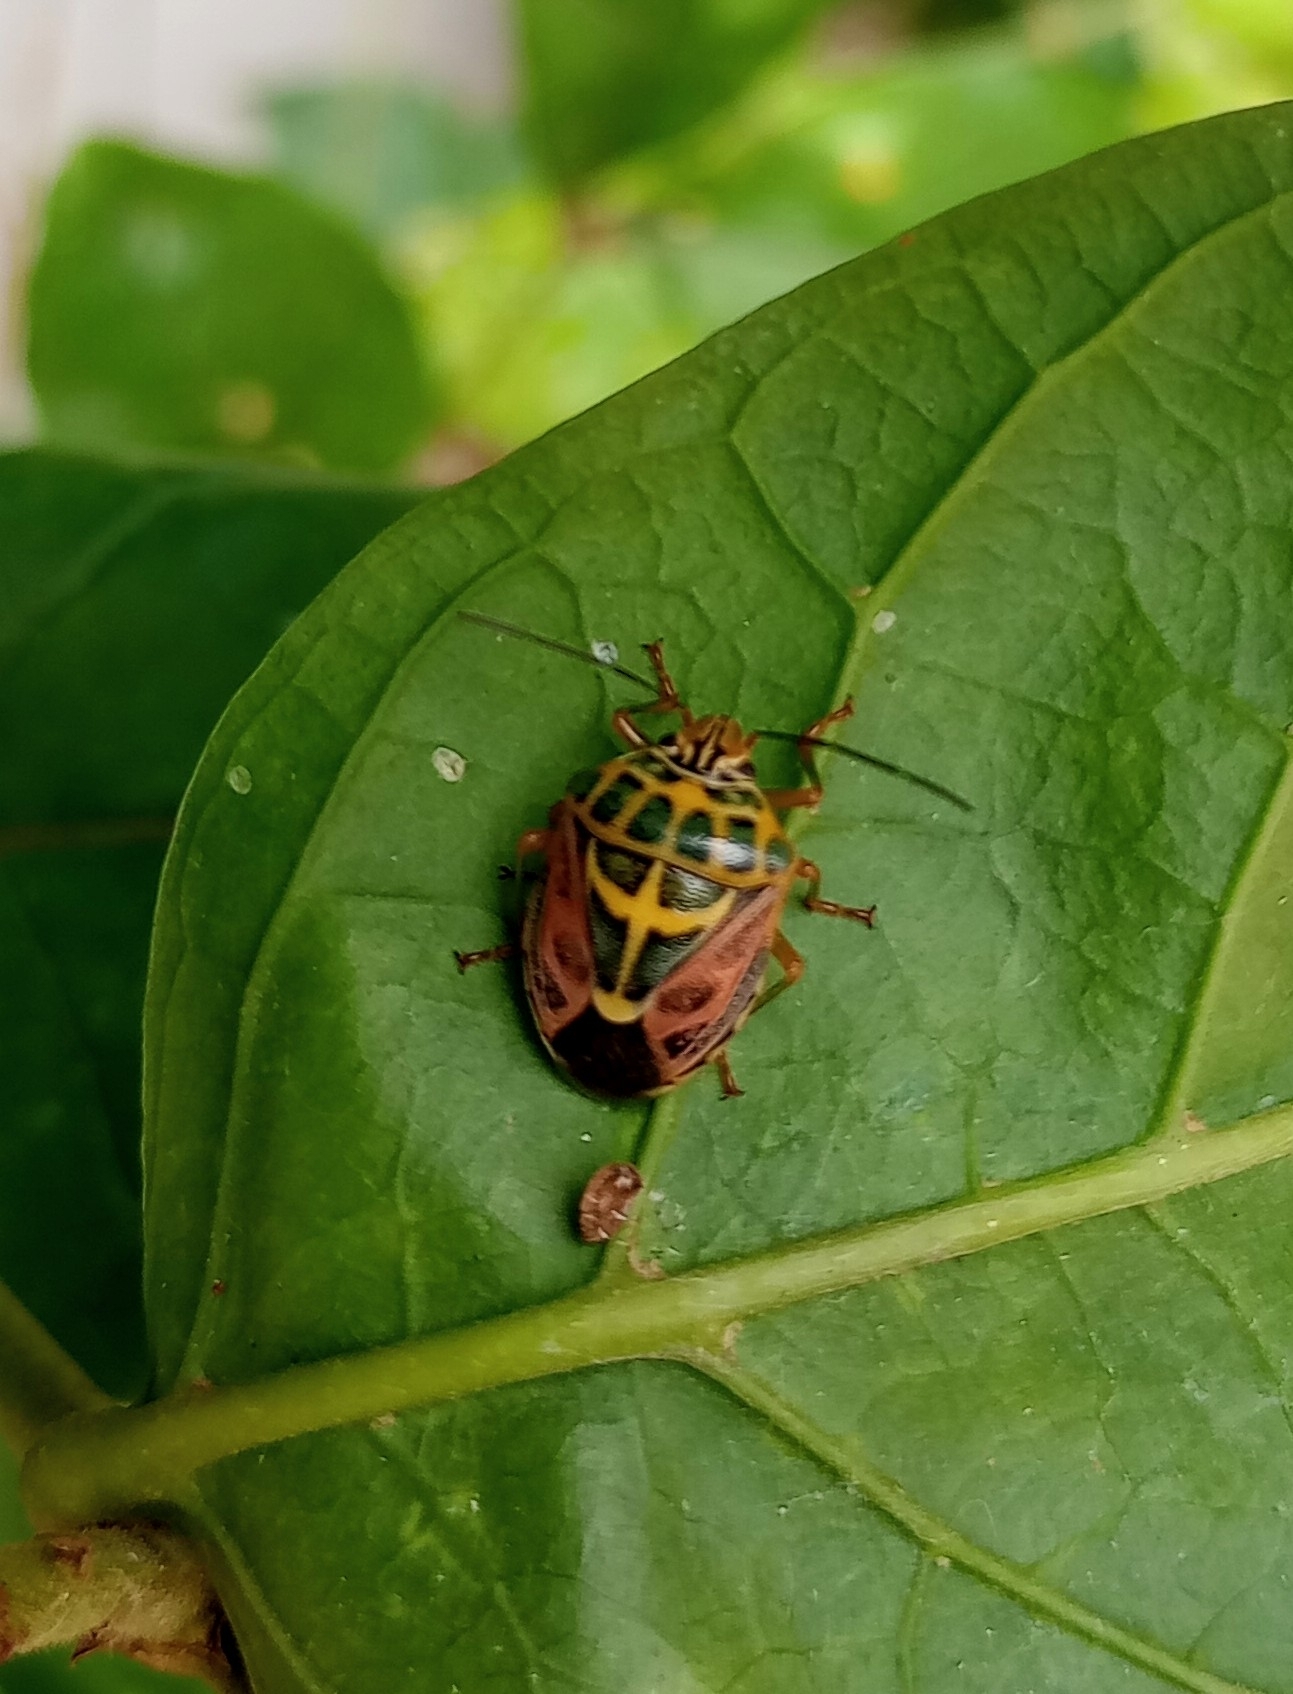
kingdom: Animalia
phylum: Arthropoda
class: Insecta
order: Hemiptera
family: Pentatomidae
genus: Antestiopsis
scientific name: Antestiopsis cruciata
